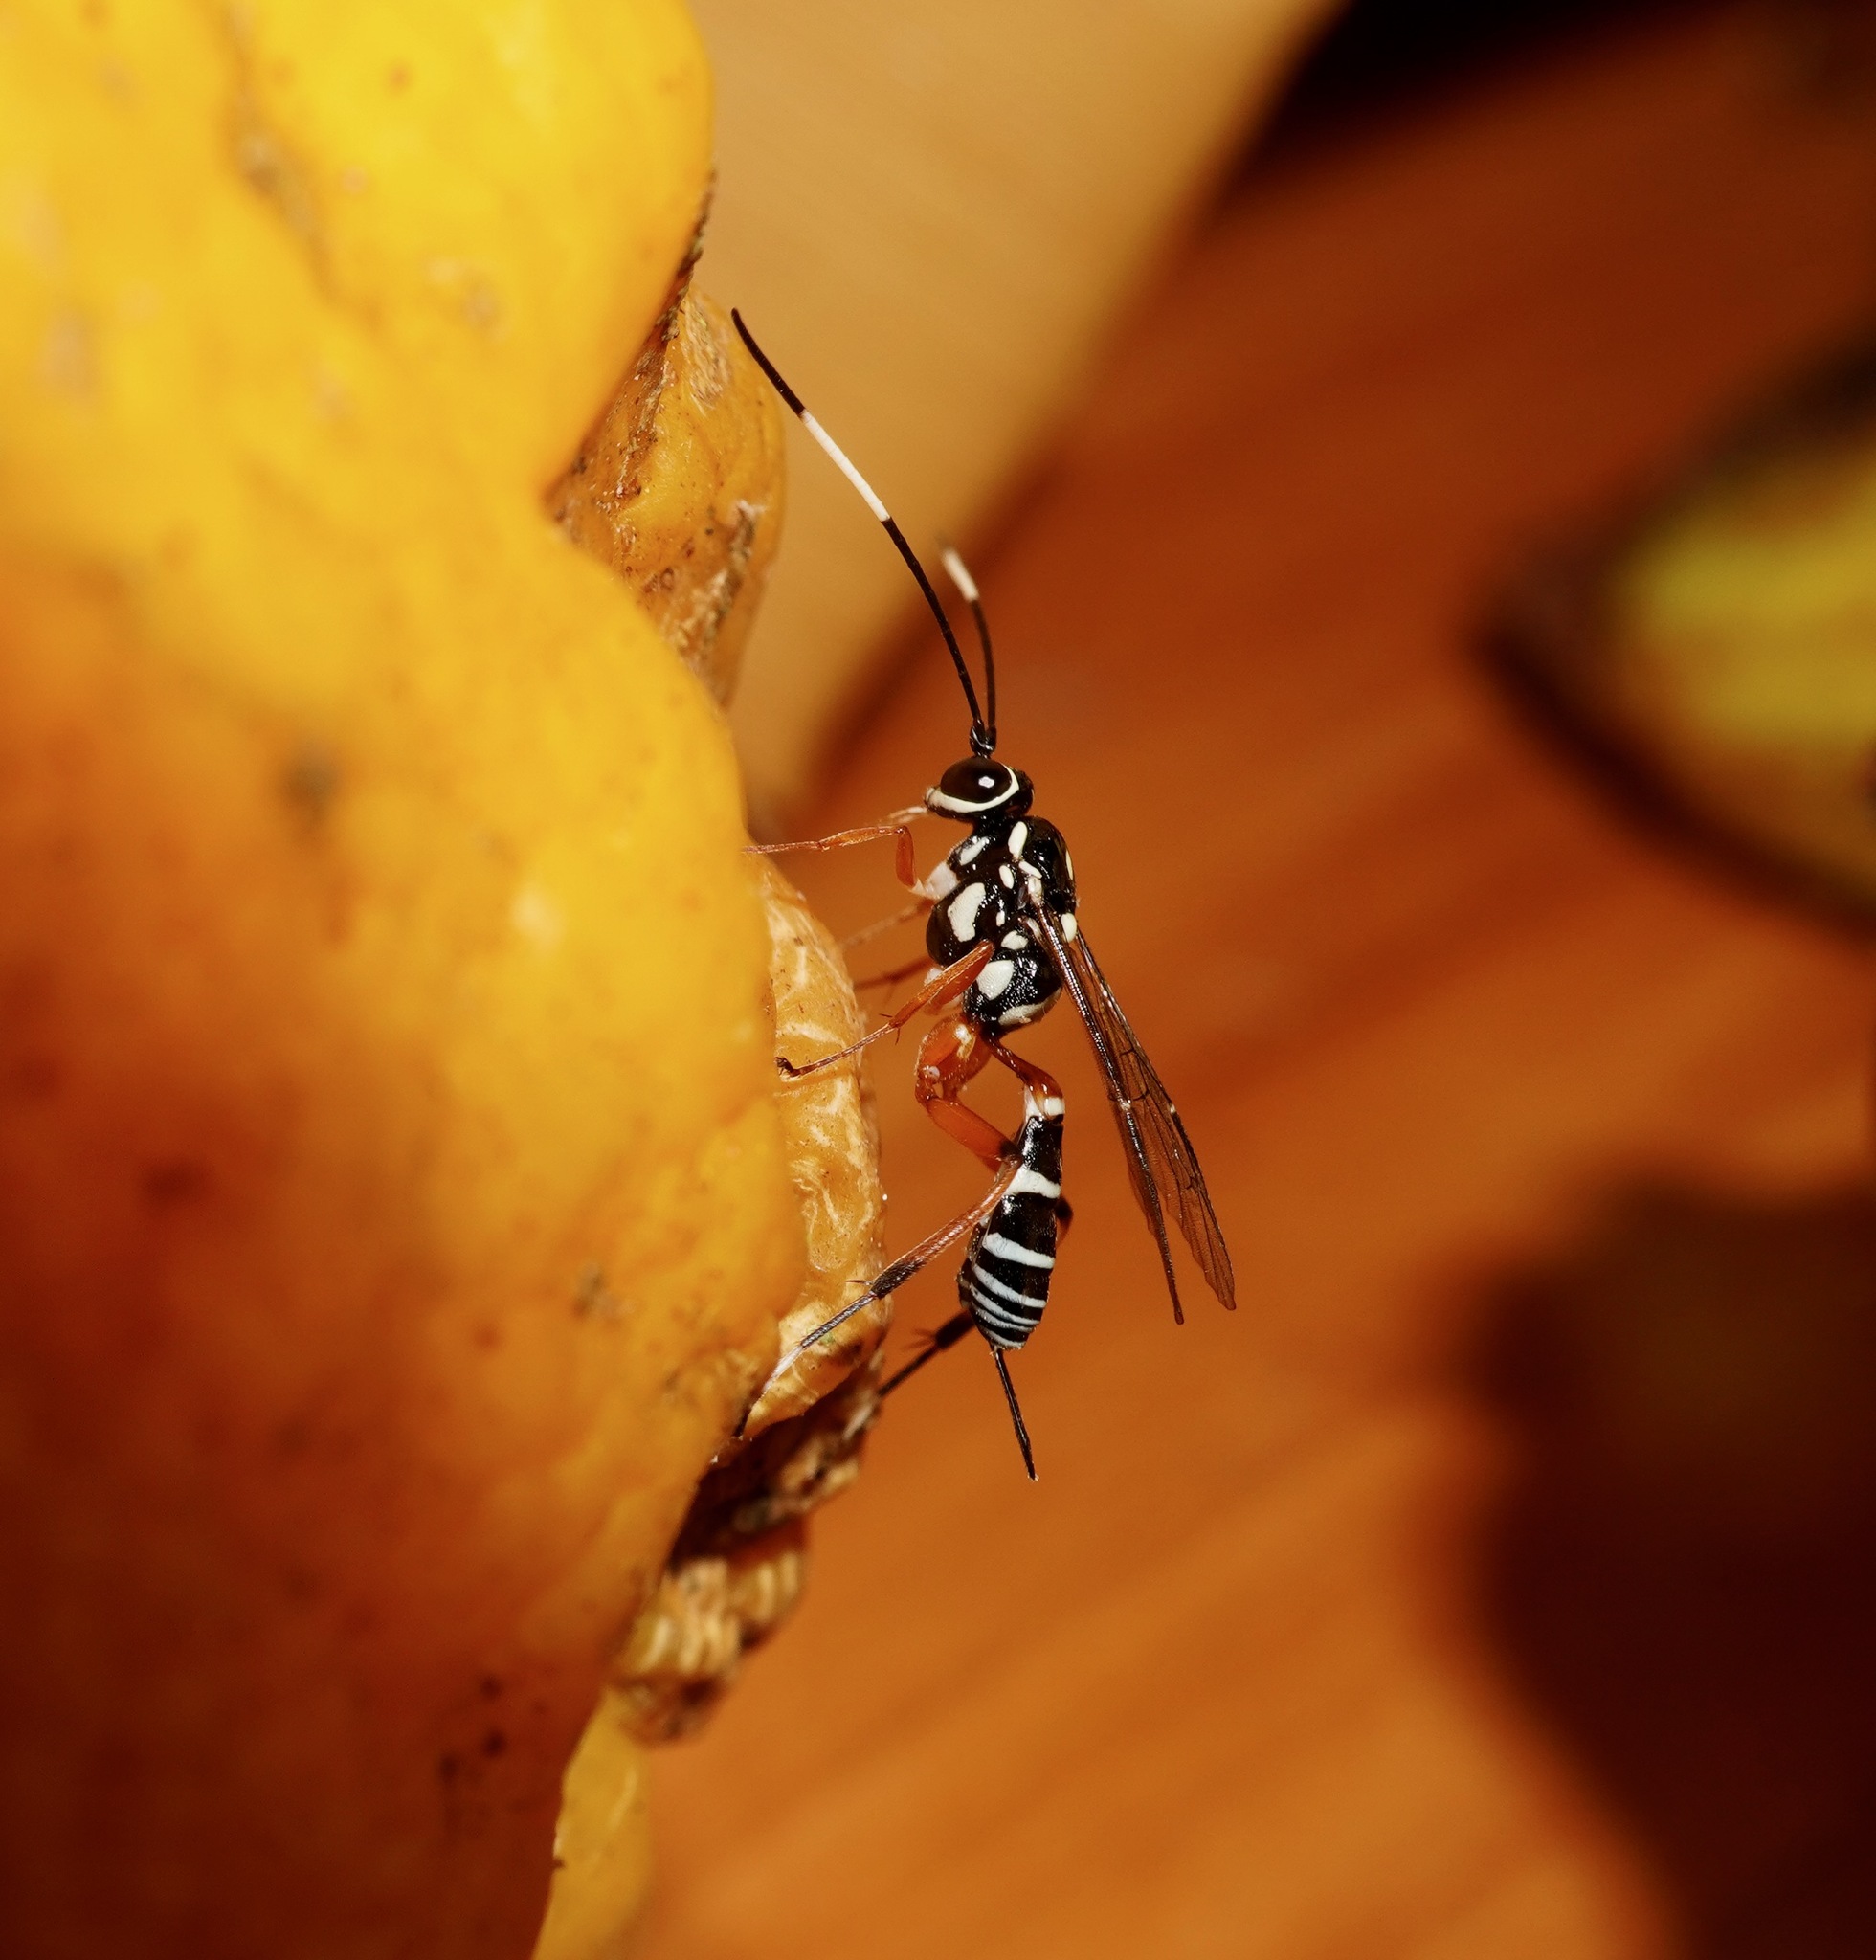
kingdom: Animalia
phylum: Arthropoda
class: Insecta
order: Hymenoptera
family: Ichneumonidae
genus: Glabridorsum
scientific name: Glabridorsum stokesii
